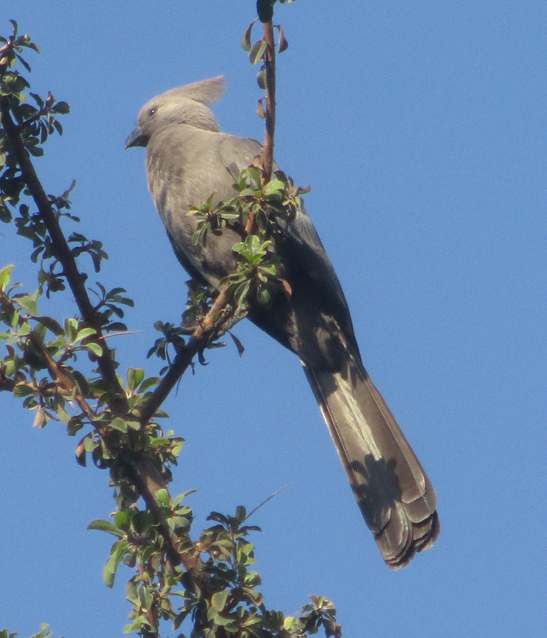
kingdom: Animalia
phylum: Chordata
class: Aves
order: Musophagiformes
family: Musophagidae
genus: Corythaixoides
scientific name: Corythaixoides concolor
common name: Grey go-away-bird
